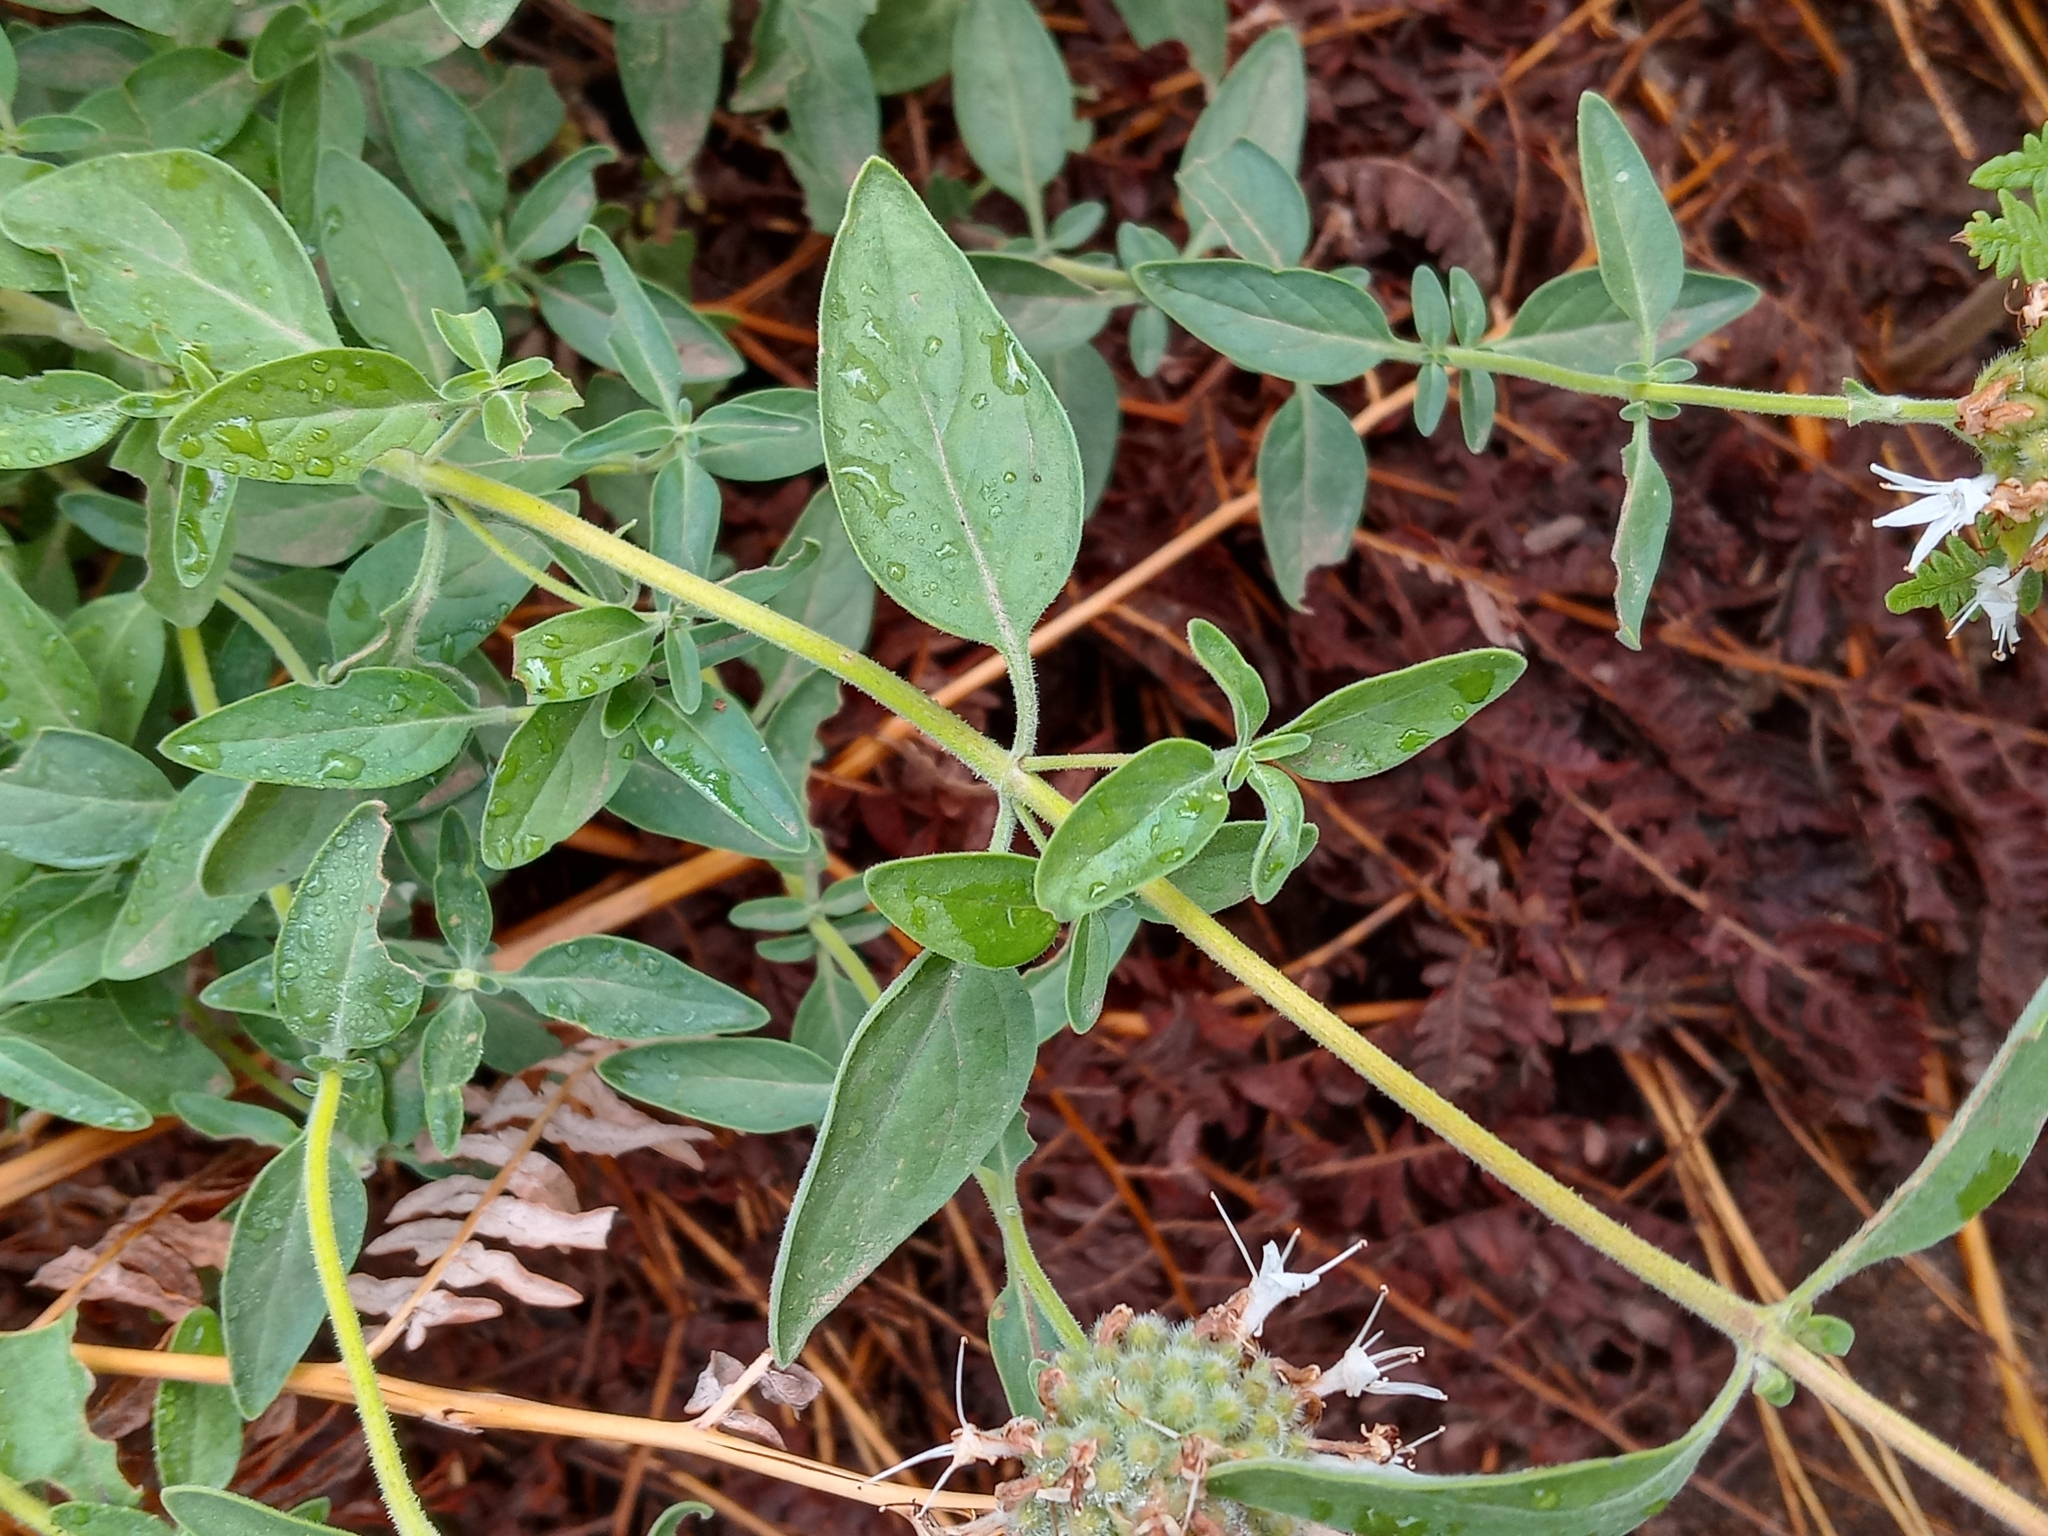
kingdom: Plantae
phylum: Tracheophyta
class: Magnoliopsida
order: Lamiales
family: Lamiaceae
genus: Monardella
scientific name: Monardella odoratissima
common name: Pacific monardella
